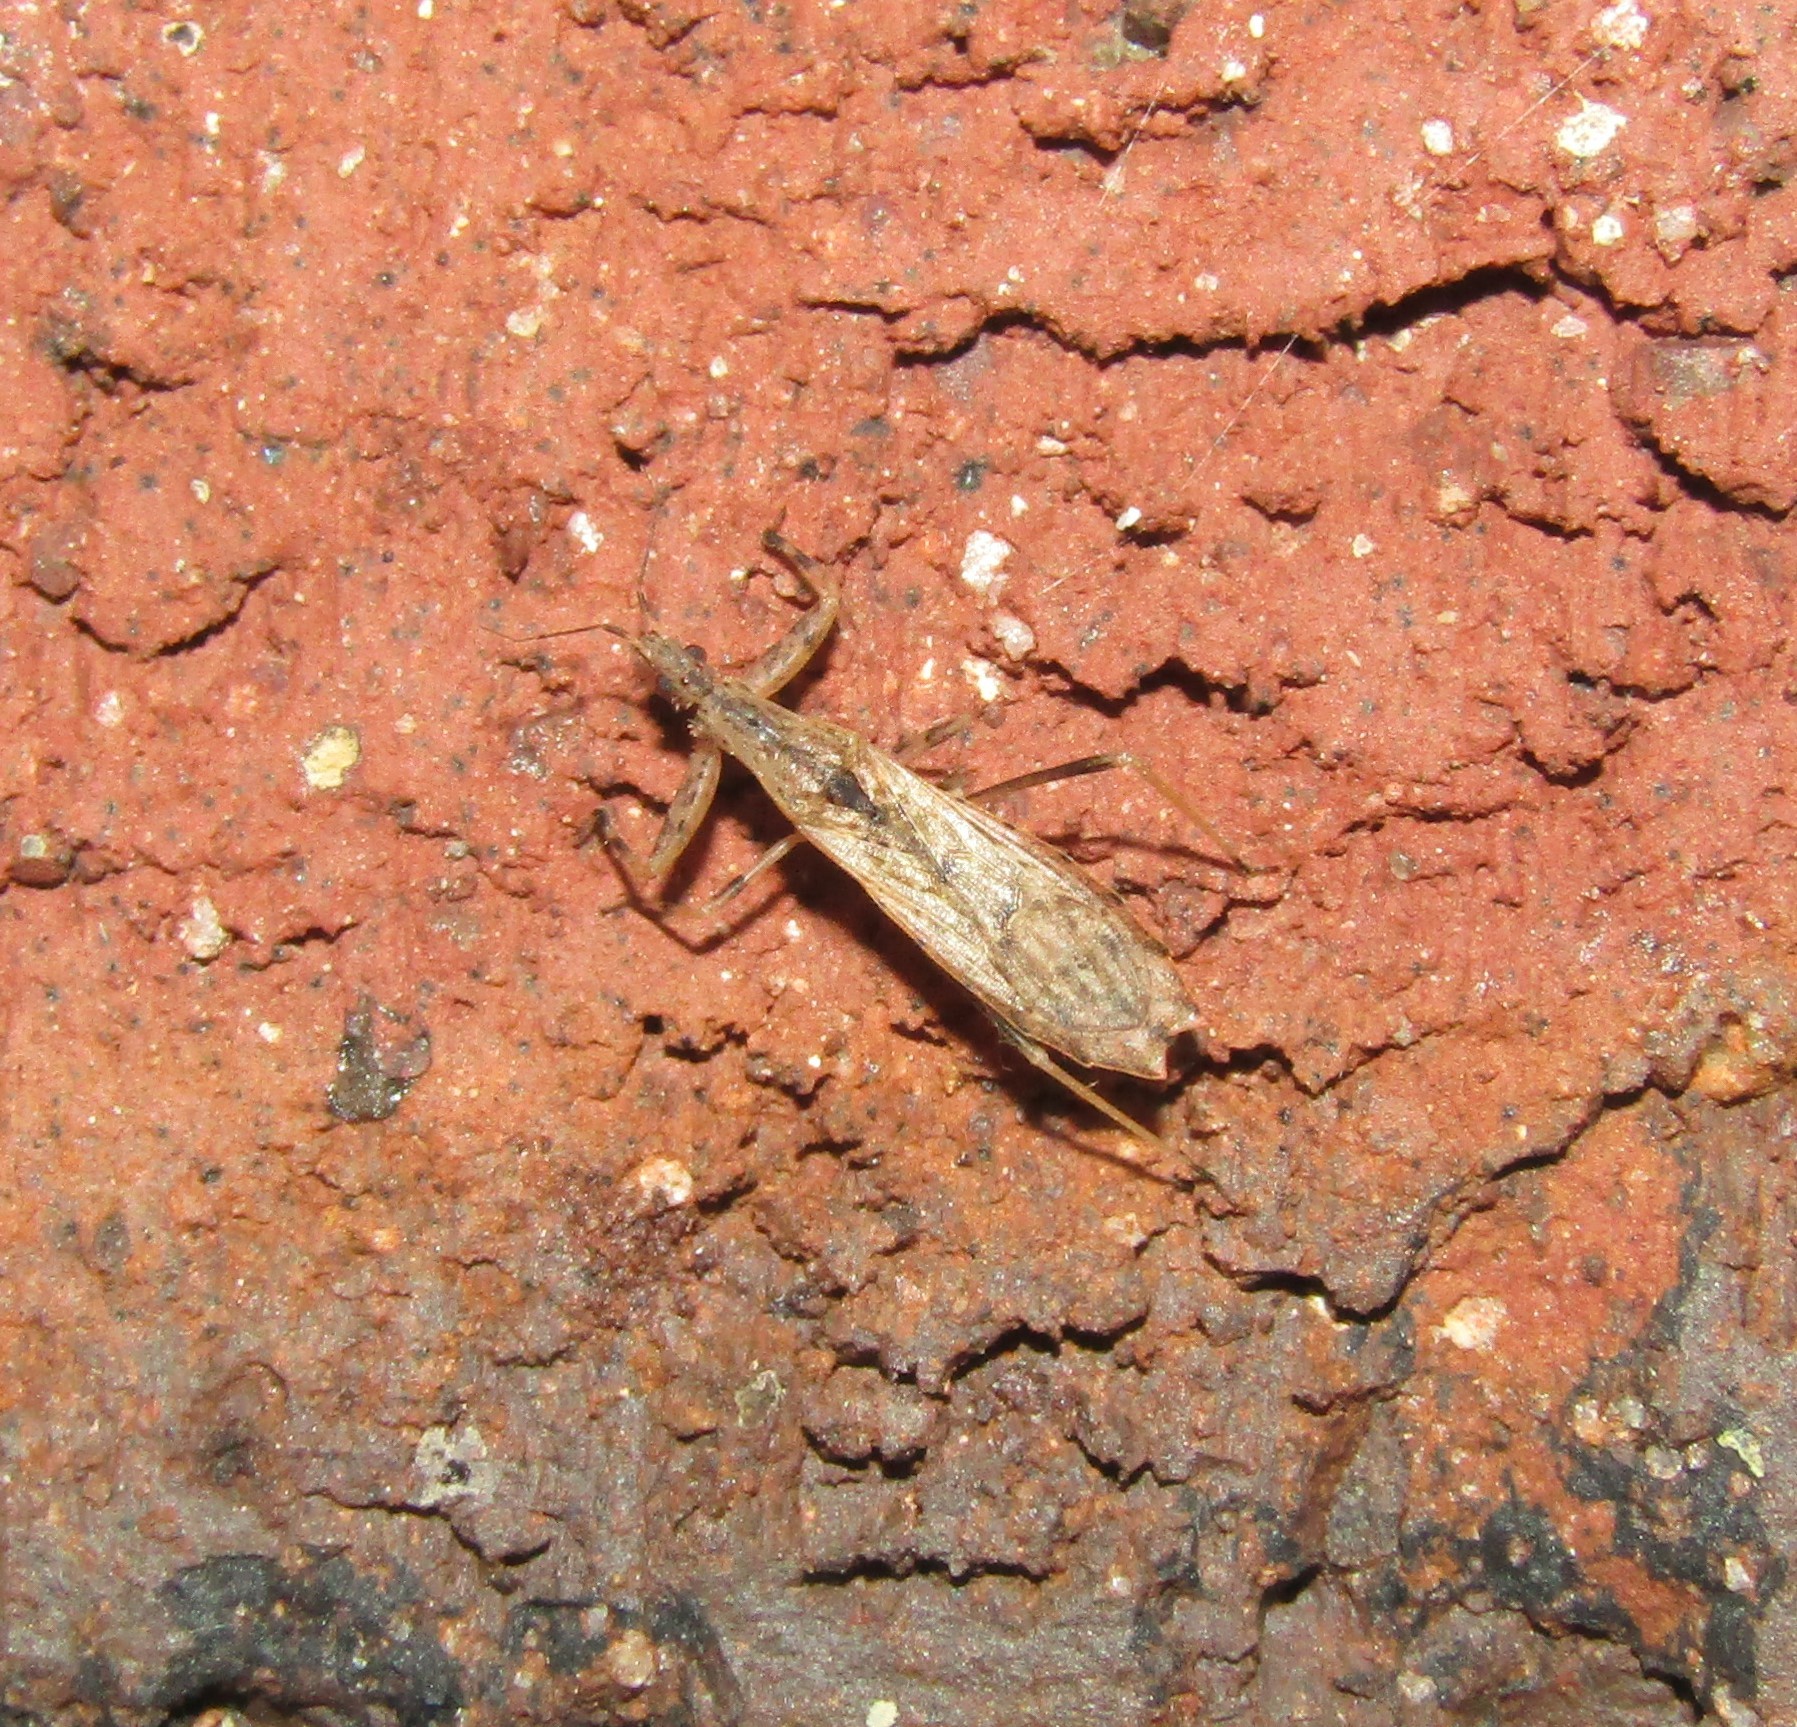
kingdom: Animalia
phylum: Arthropoda
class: Insecta
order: Hemiptera
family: Reduviidae
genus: Ctenotrachelus
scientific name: Ctenotrachelus shermani
